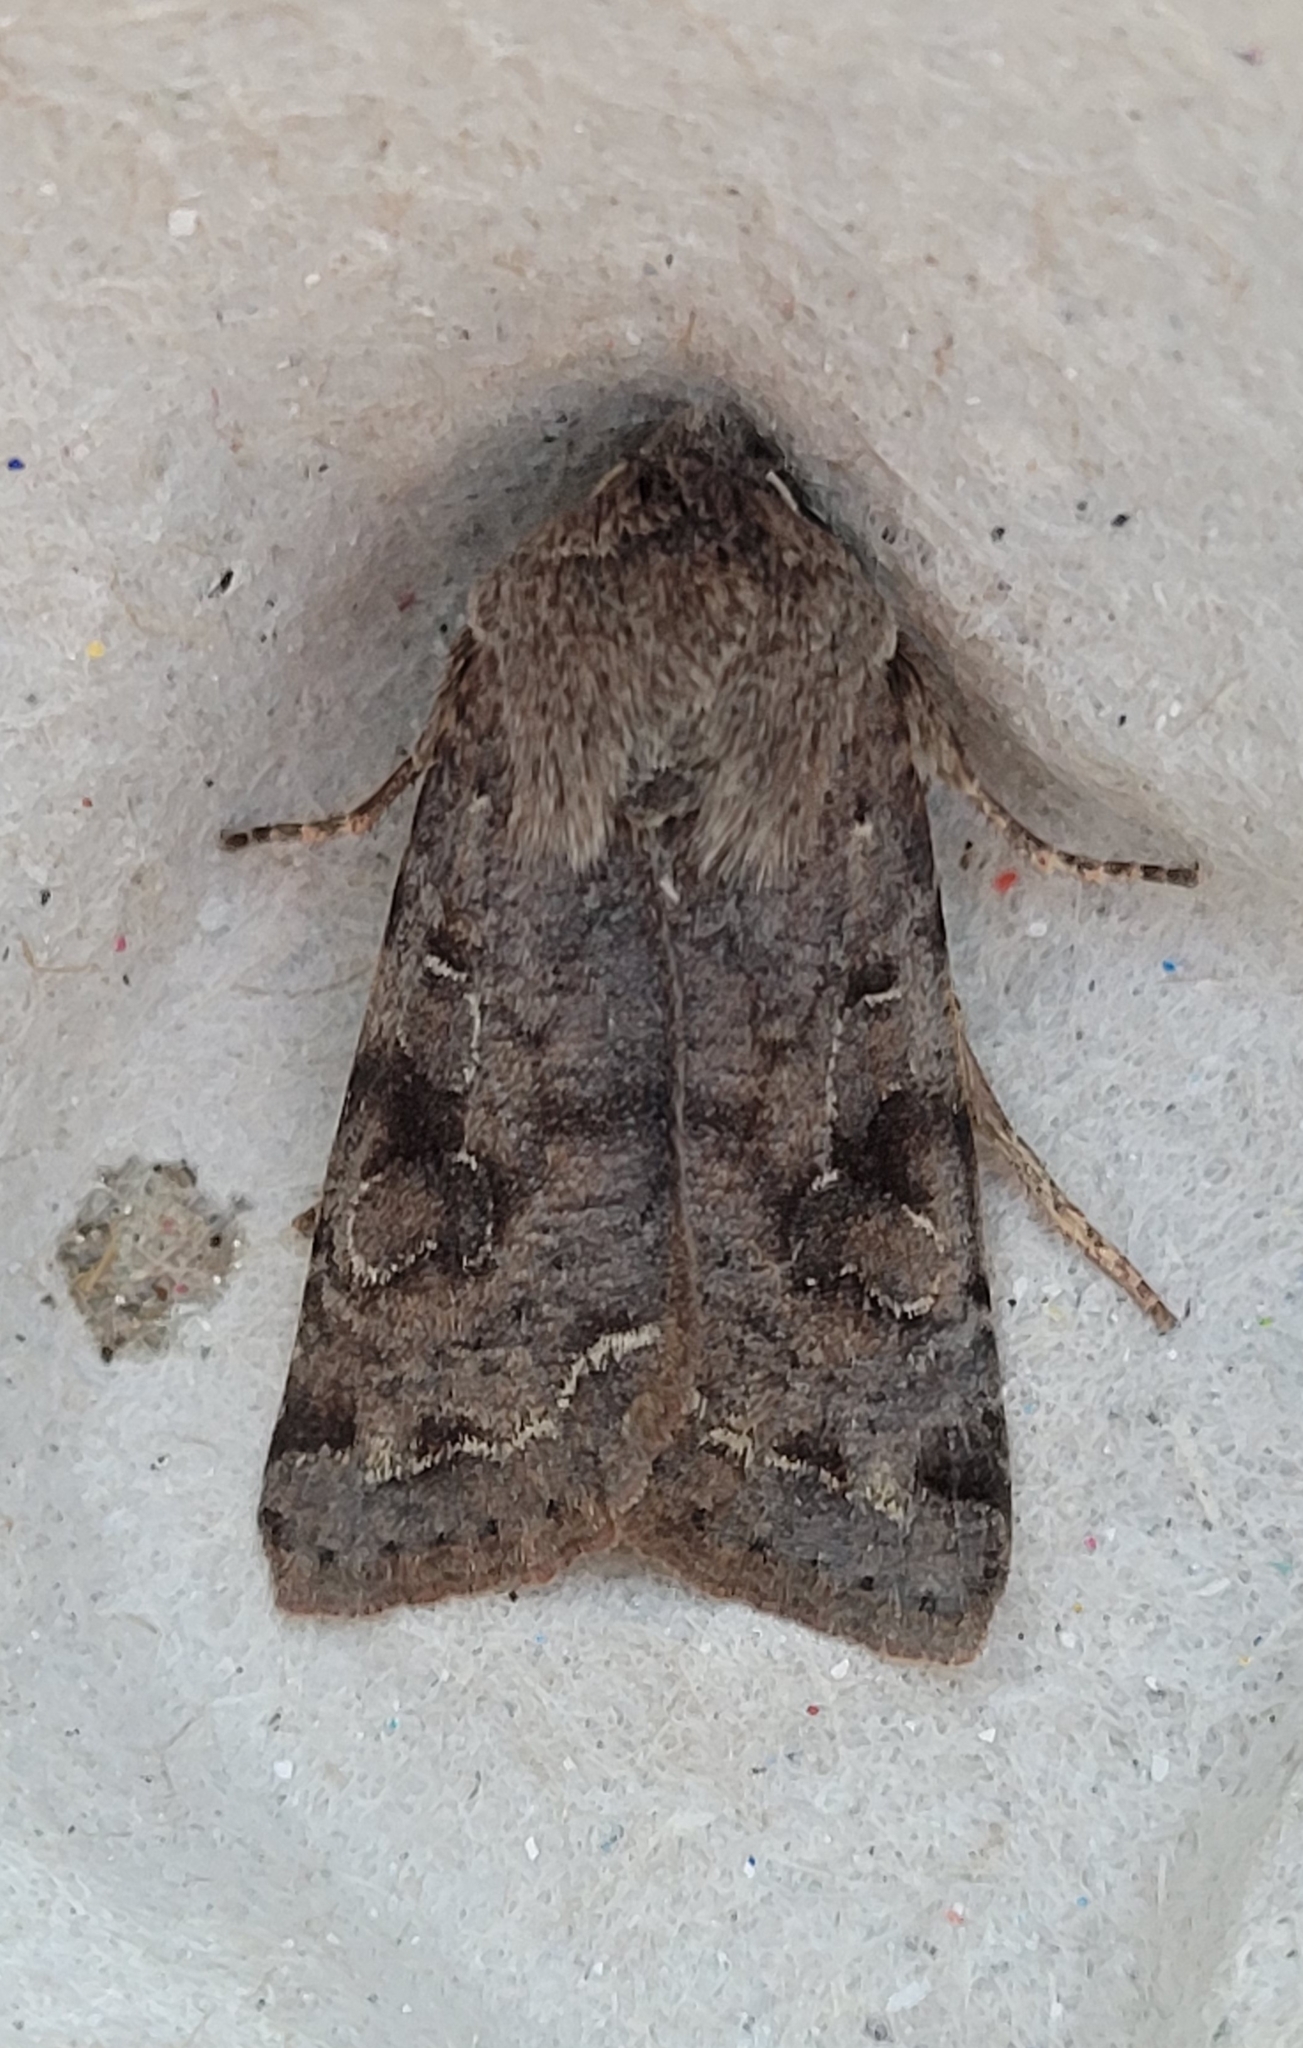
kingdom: Animalia
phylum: Arthropoda
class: Insecta
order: Lepidoptera
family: Noctuidae
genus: Orthosia
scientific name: Orthosia incerta
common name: Clouded drab
